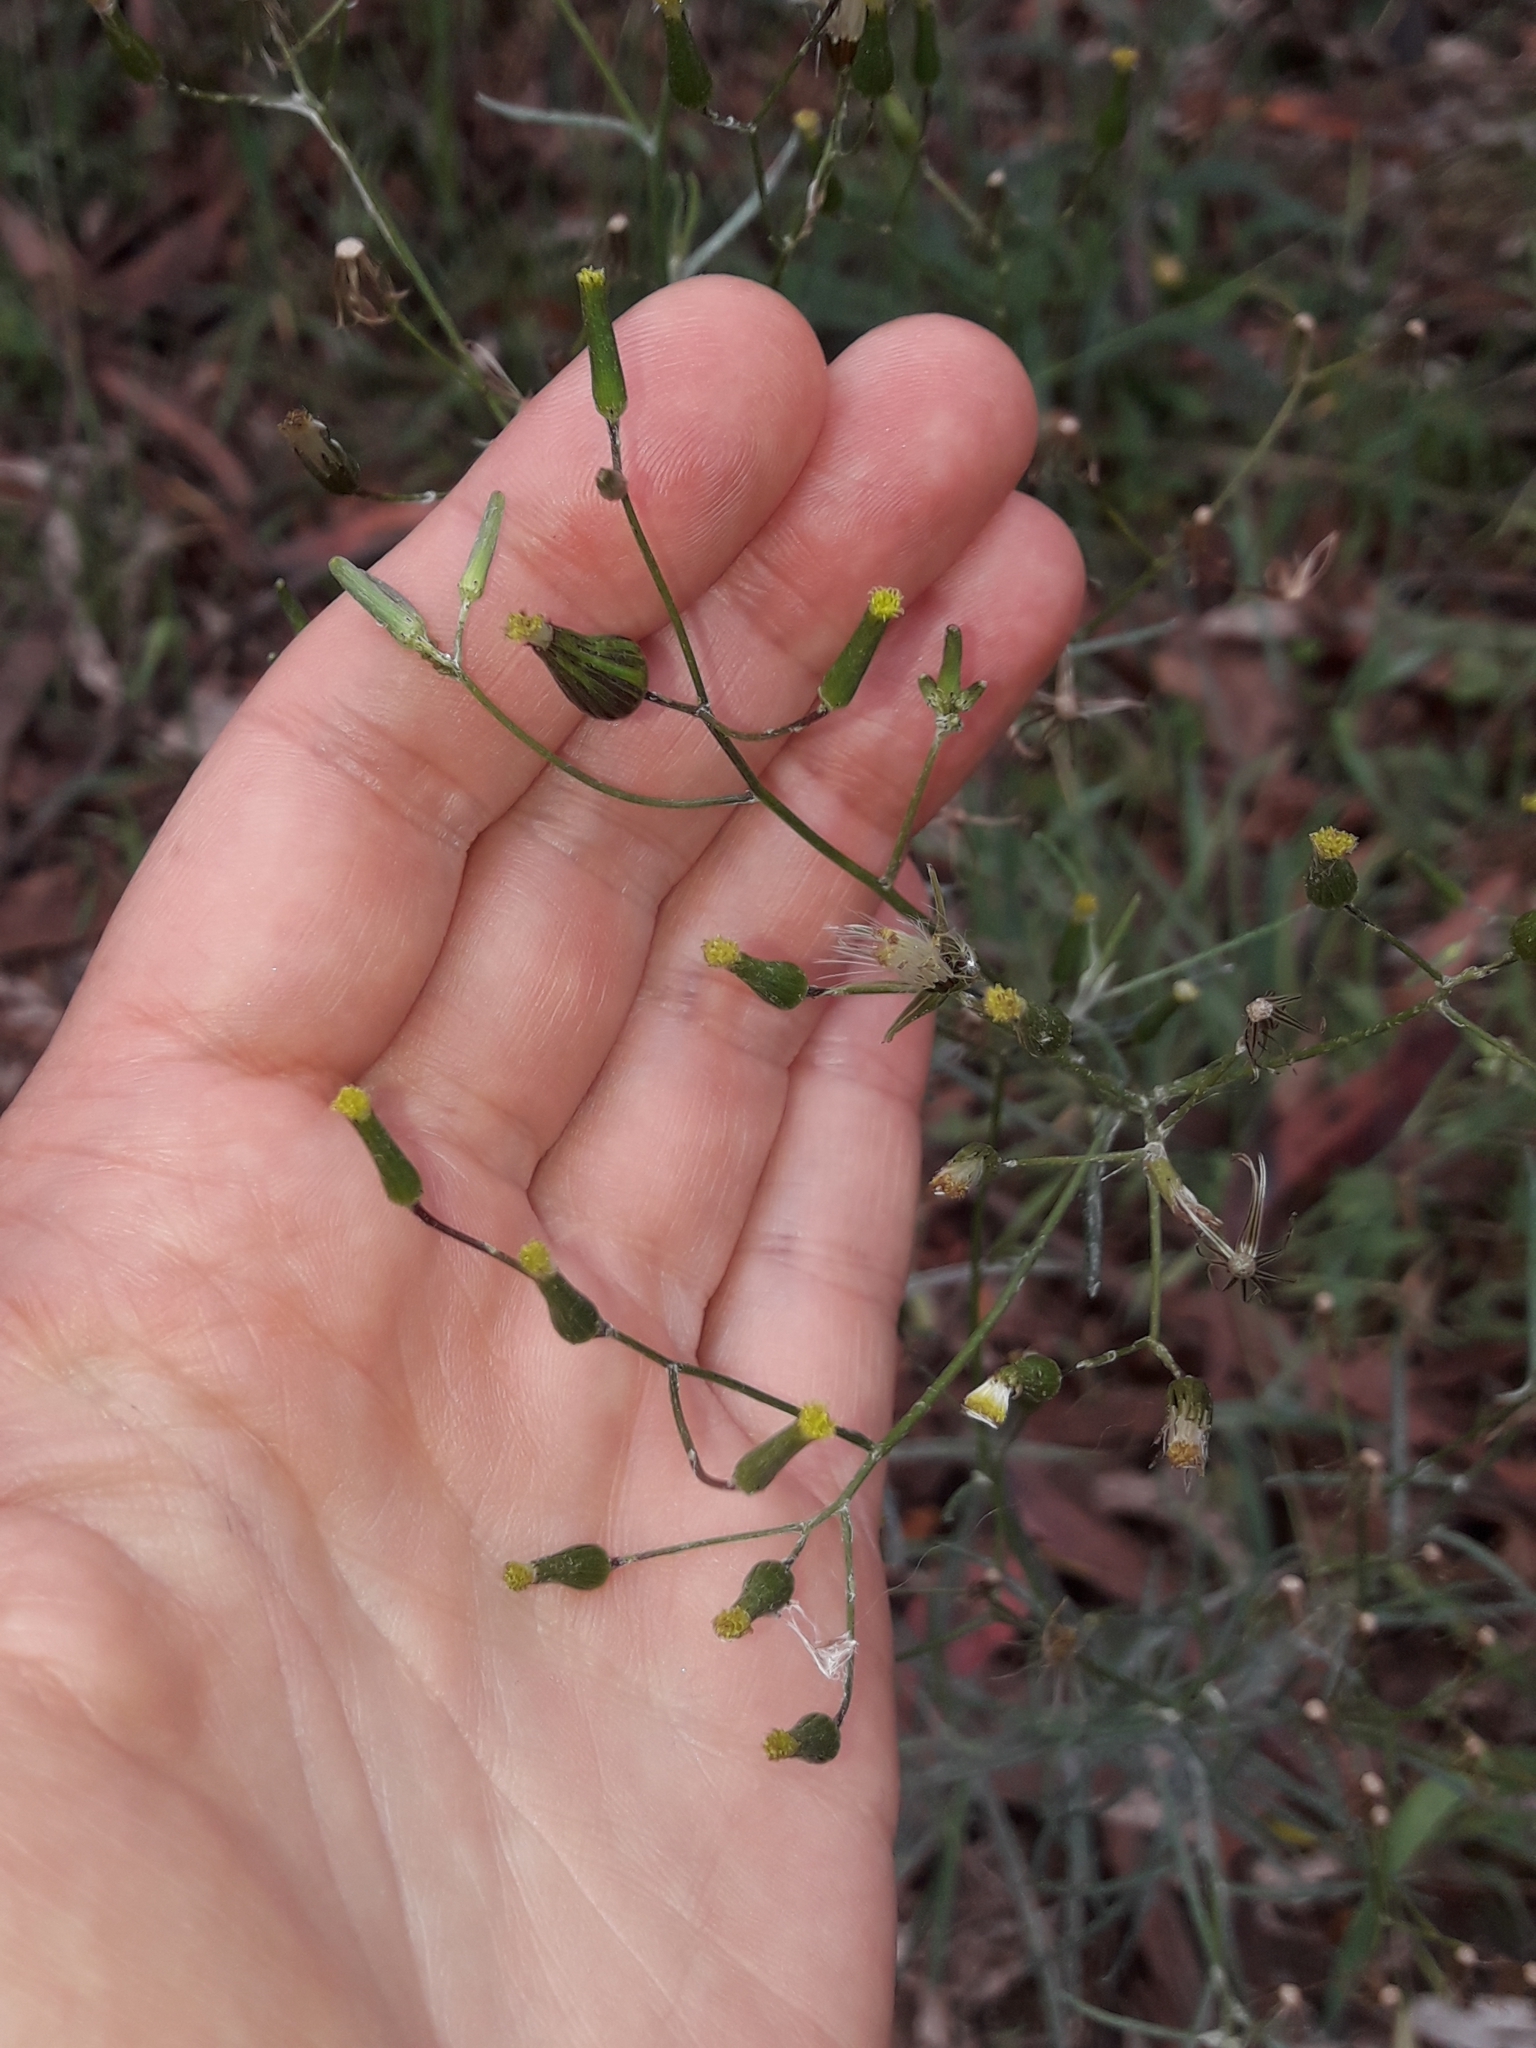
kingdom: Plantae
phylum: Tracheophyta
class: Magnoliopsida
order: Asterales
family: Asteraceae
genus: Senecio
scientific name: Senecio quadridentatus
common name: Cotton fireweed
